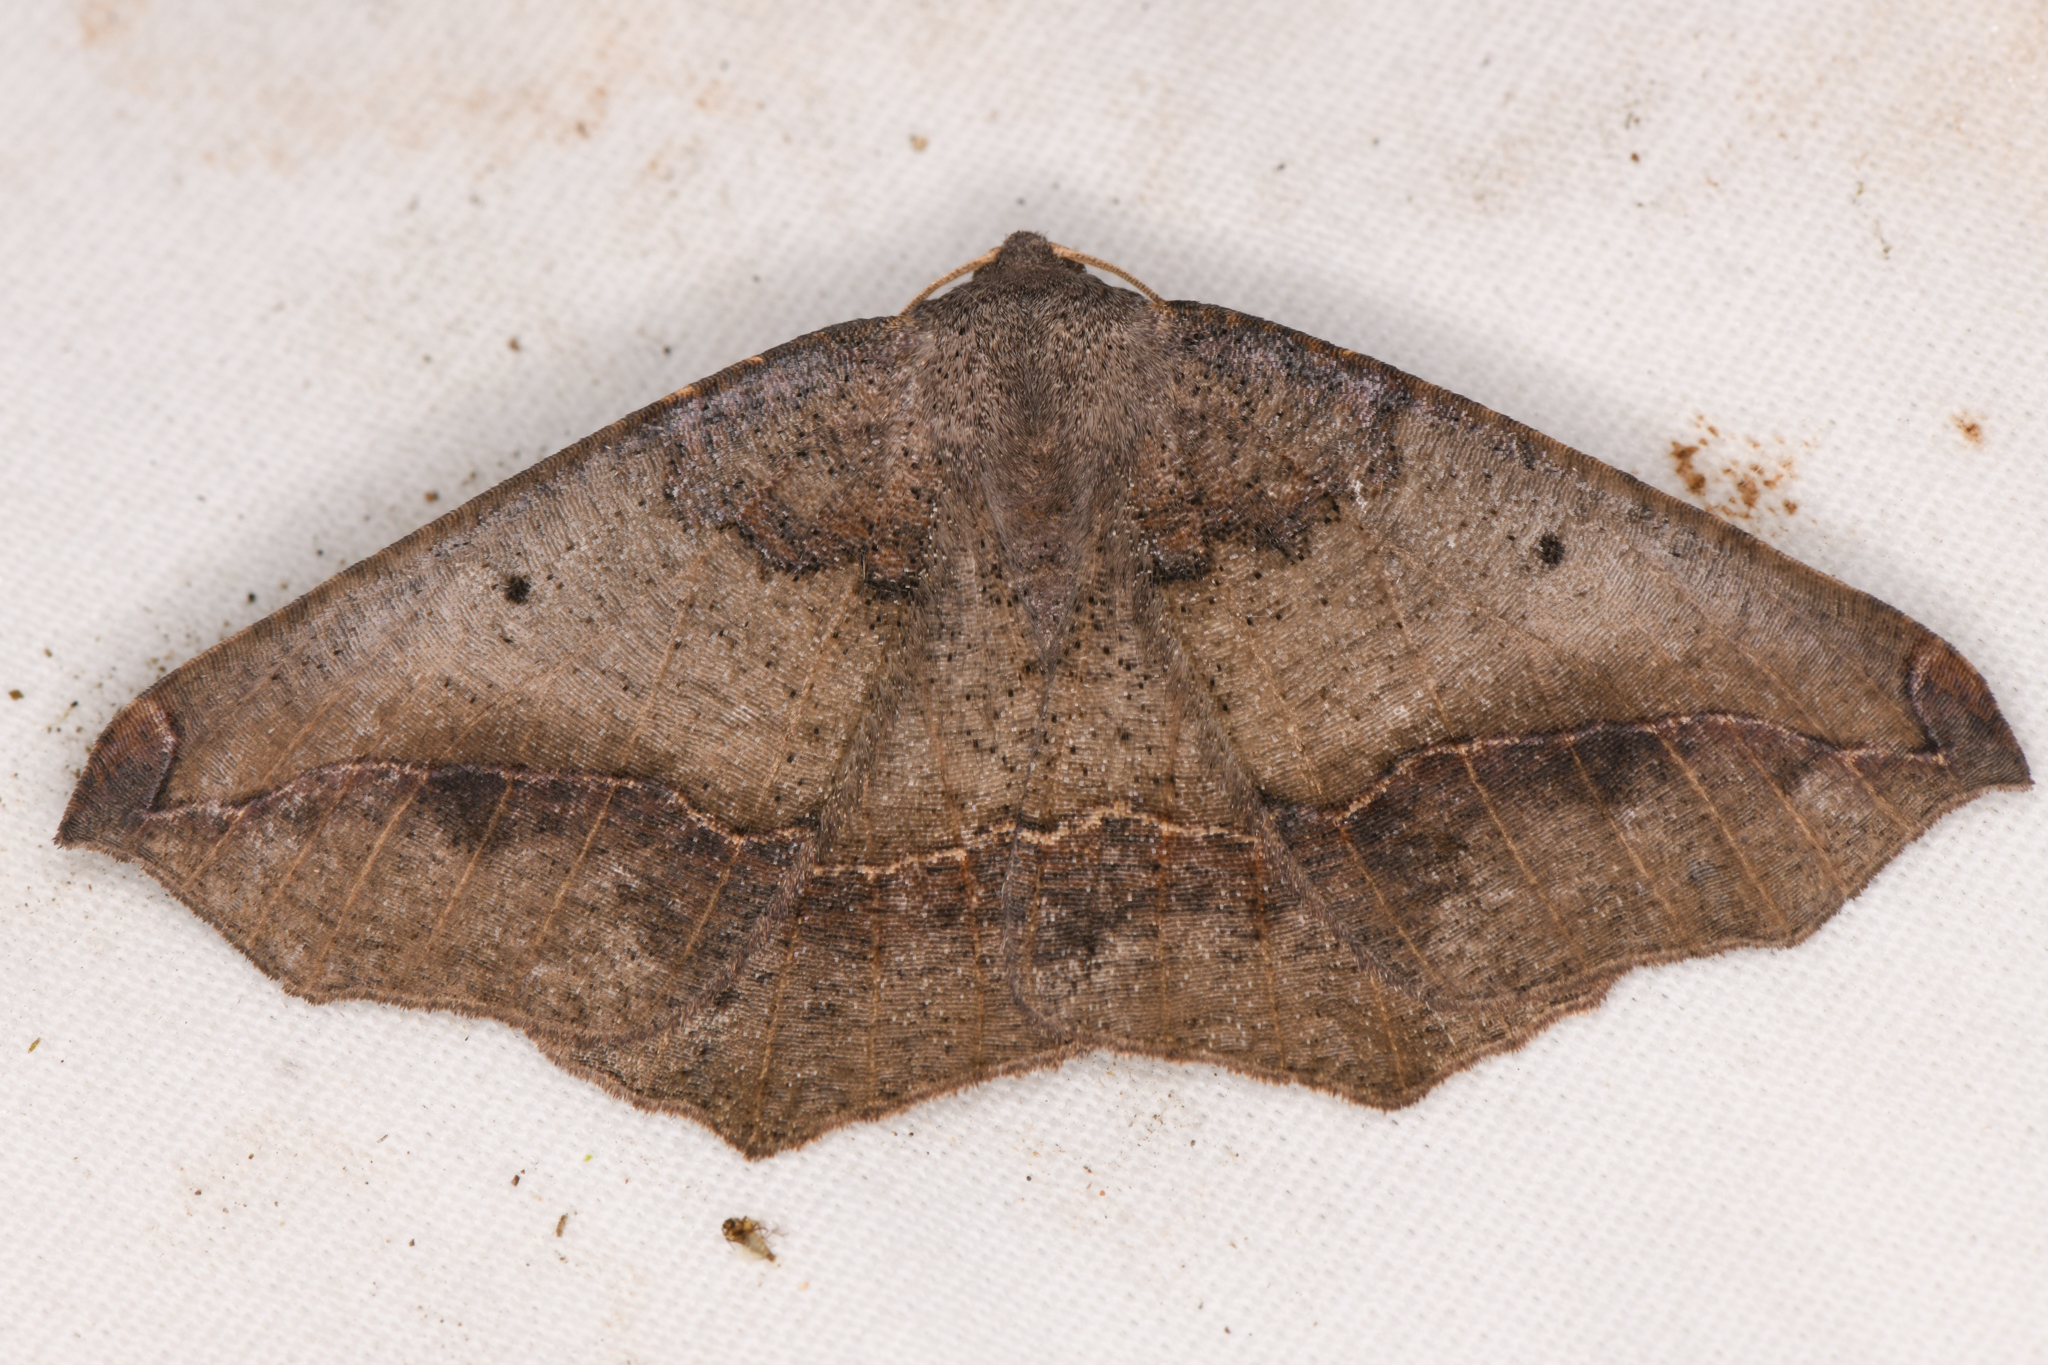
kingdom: Animalia
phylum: Arthropoda
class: Insecta
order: Lepidoptera
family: Geometridae
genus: Prochoerodes
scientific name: Prochoerodes forficaria
